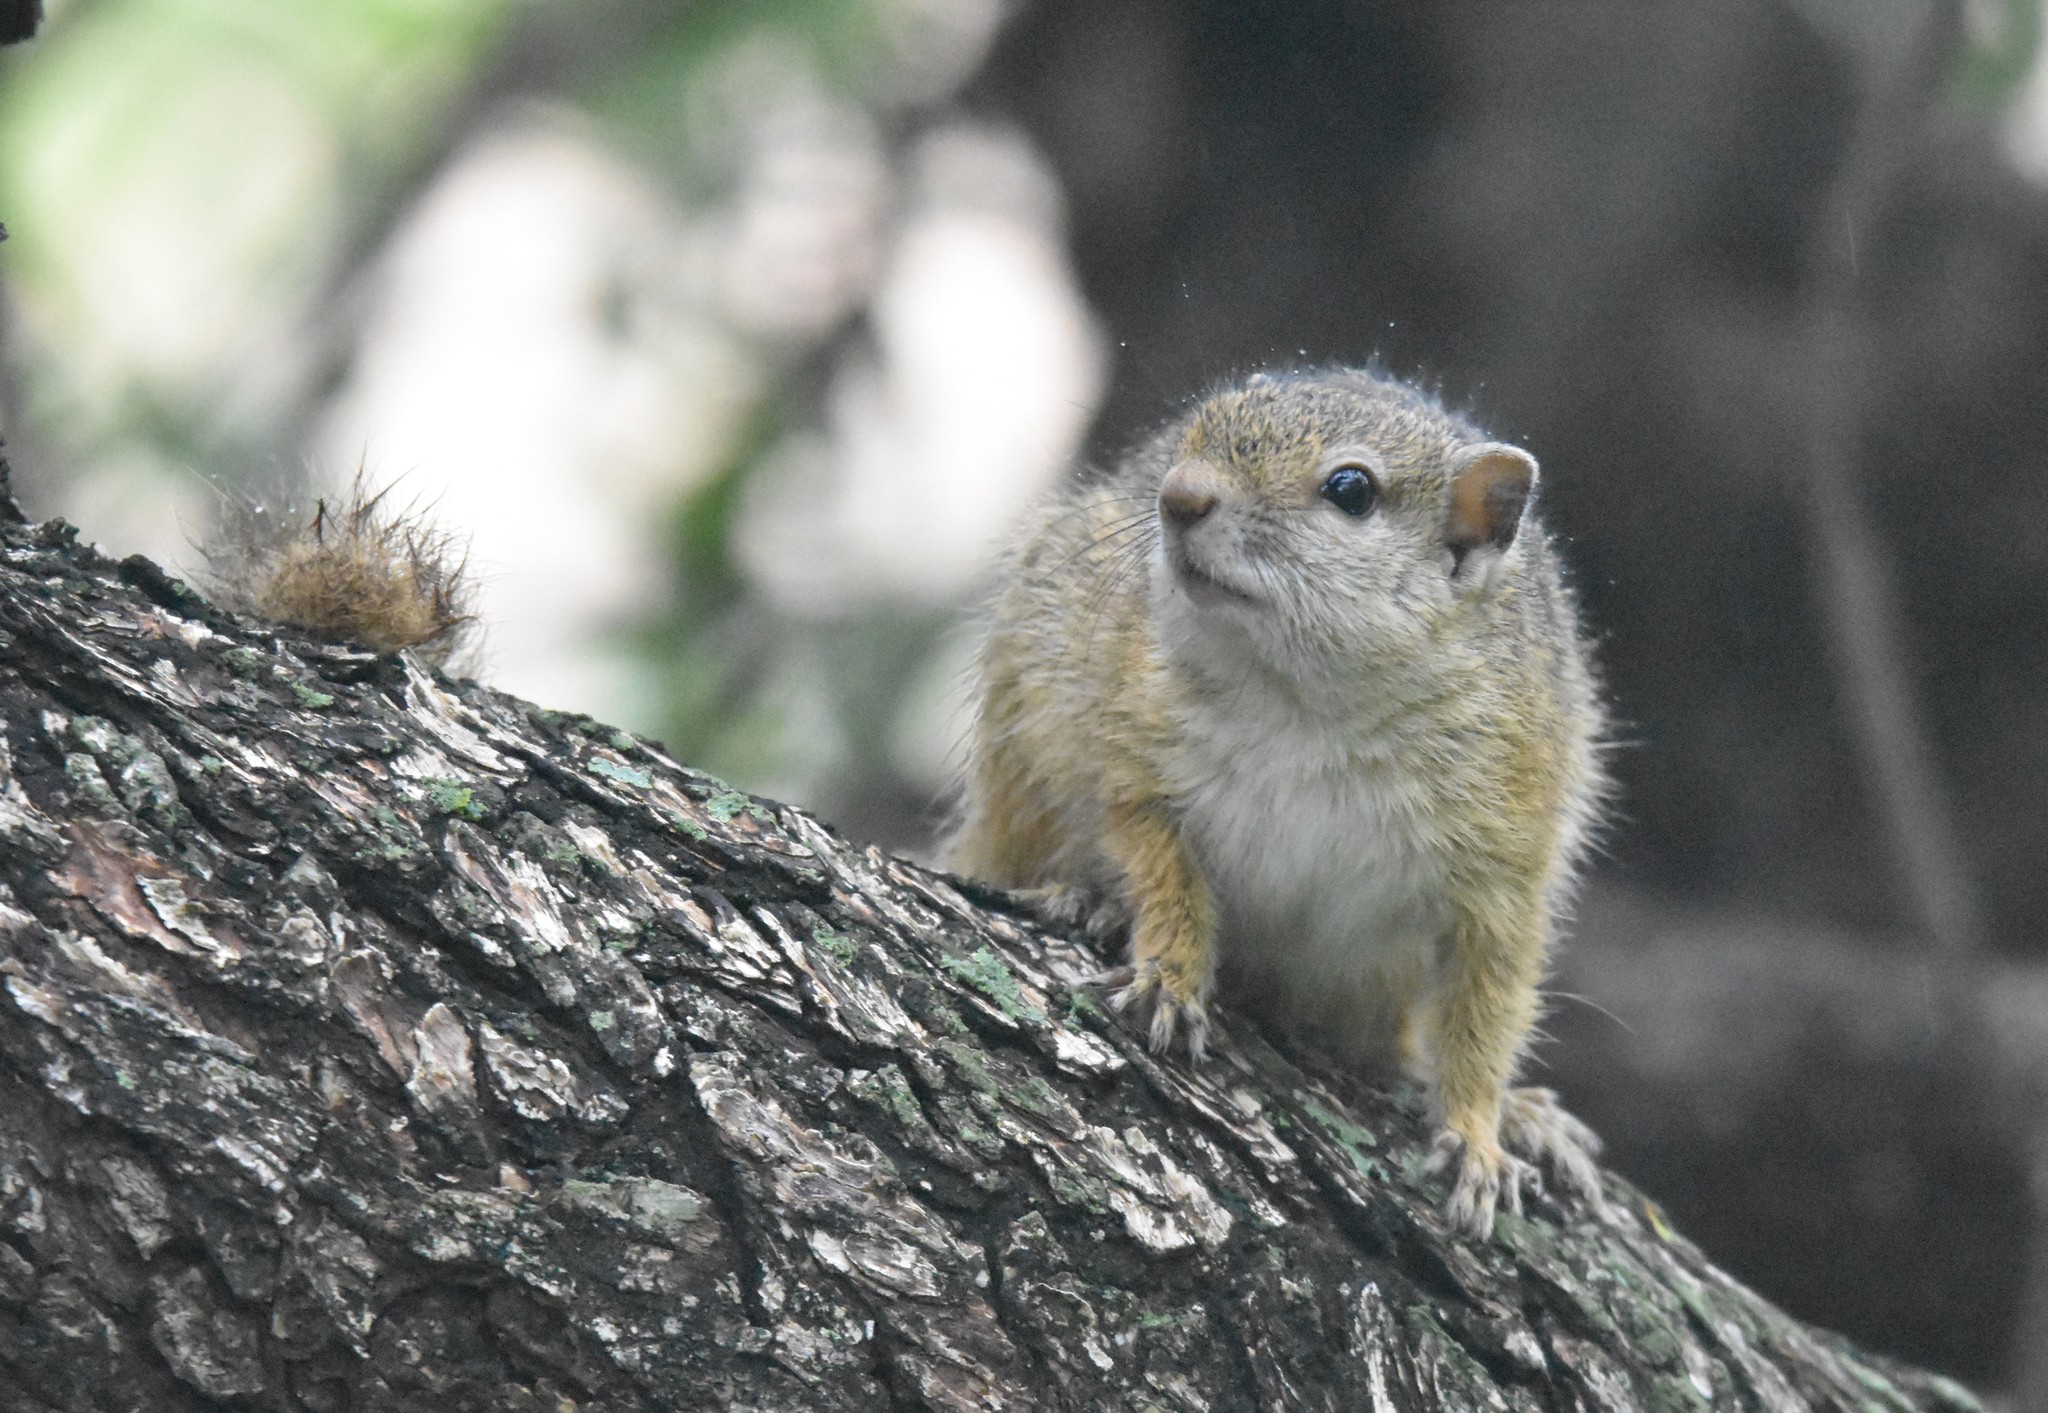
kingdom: Animalia
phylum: Chordata
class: Mammalia
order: Rodentia
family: Sciuridae
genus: Paraxerus
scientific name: Paraxerus cepapi
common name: Smith's bush squirrel
